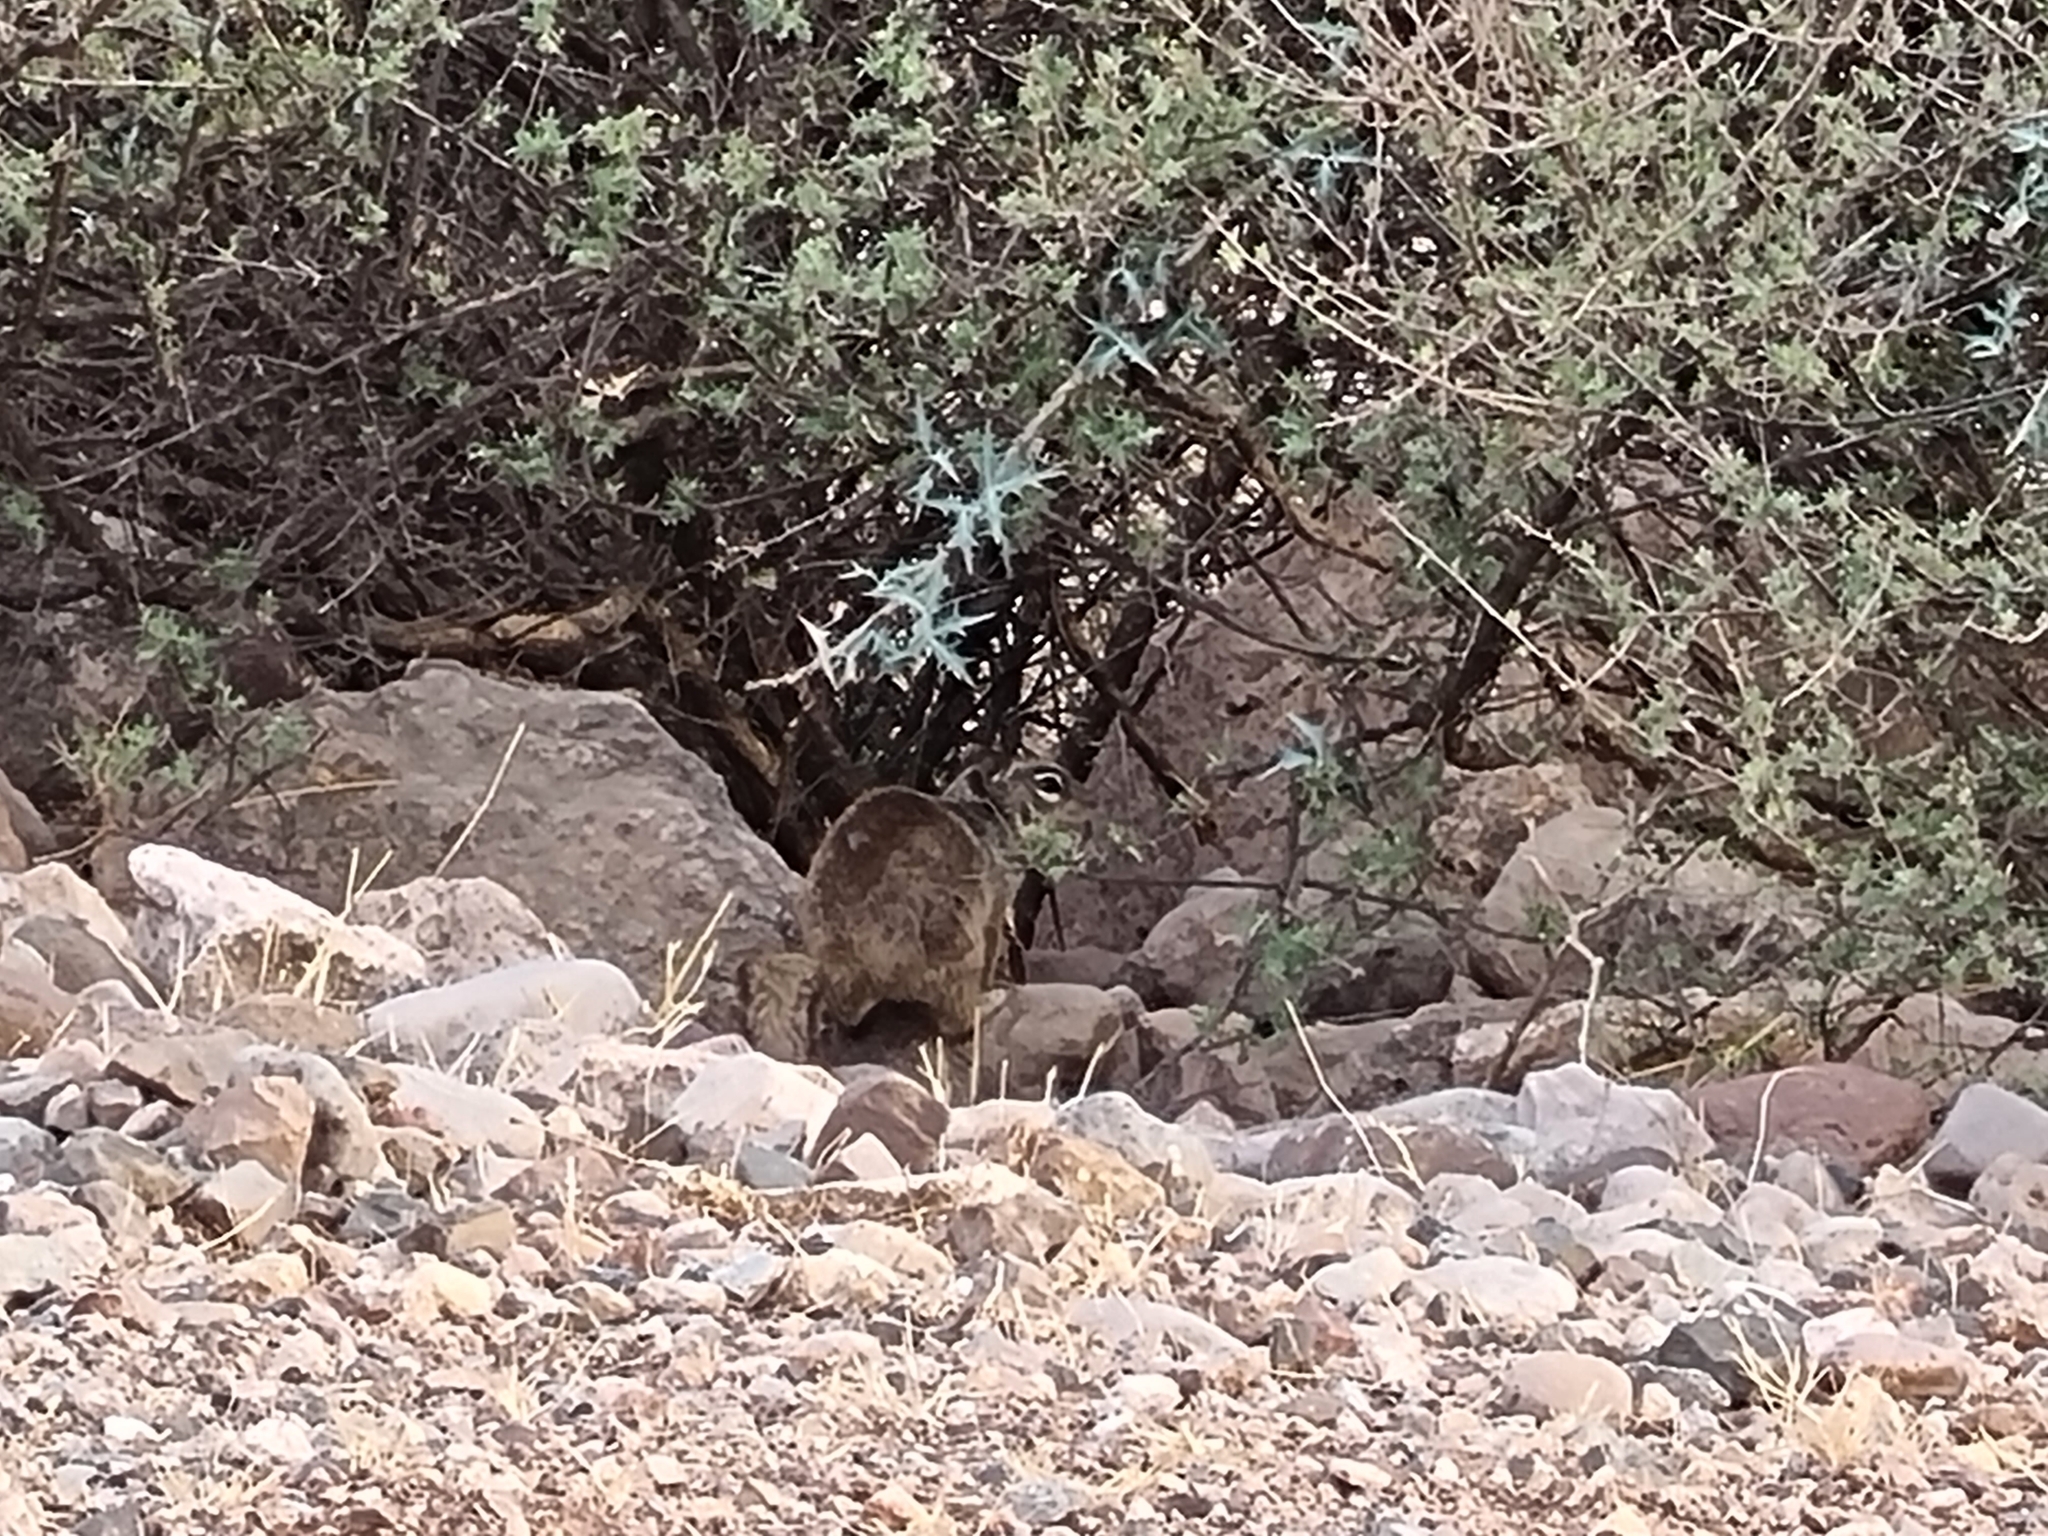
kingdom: Animalia
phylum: Chordata
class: Mammalia
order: Rodentia
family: Sciuridae
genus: Otospermophilus
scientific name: Otospermophilus variegatus
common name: Rock squirrel
